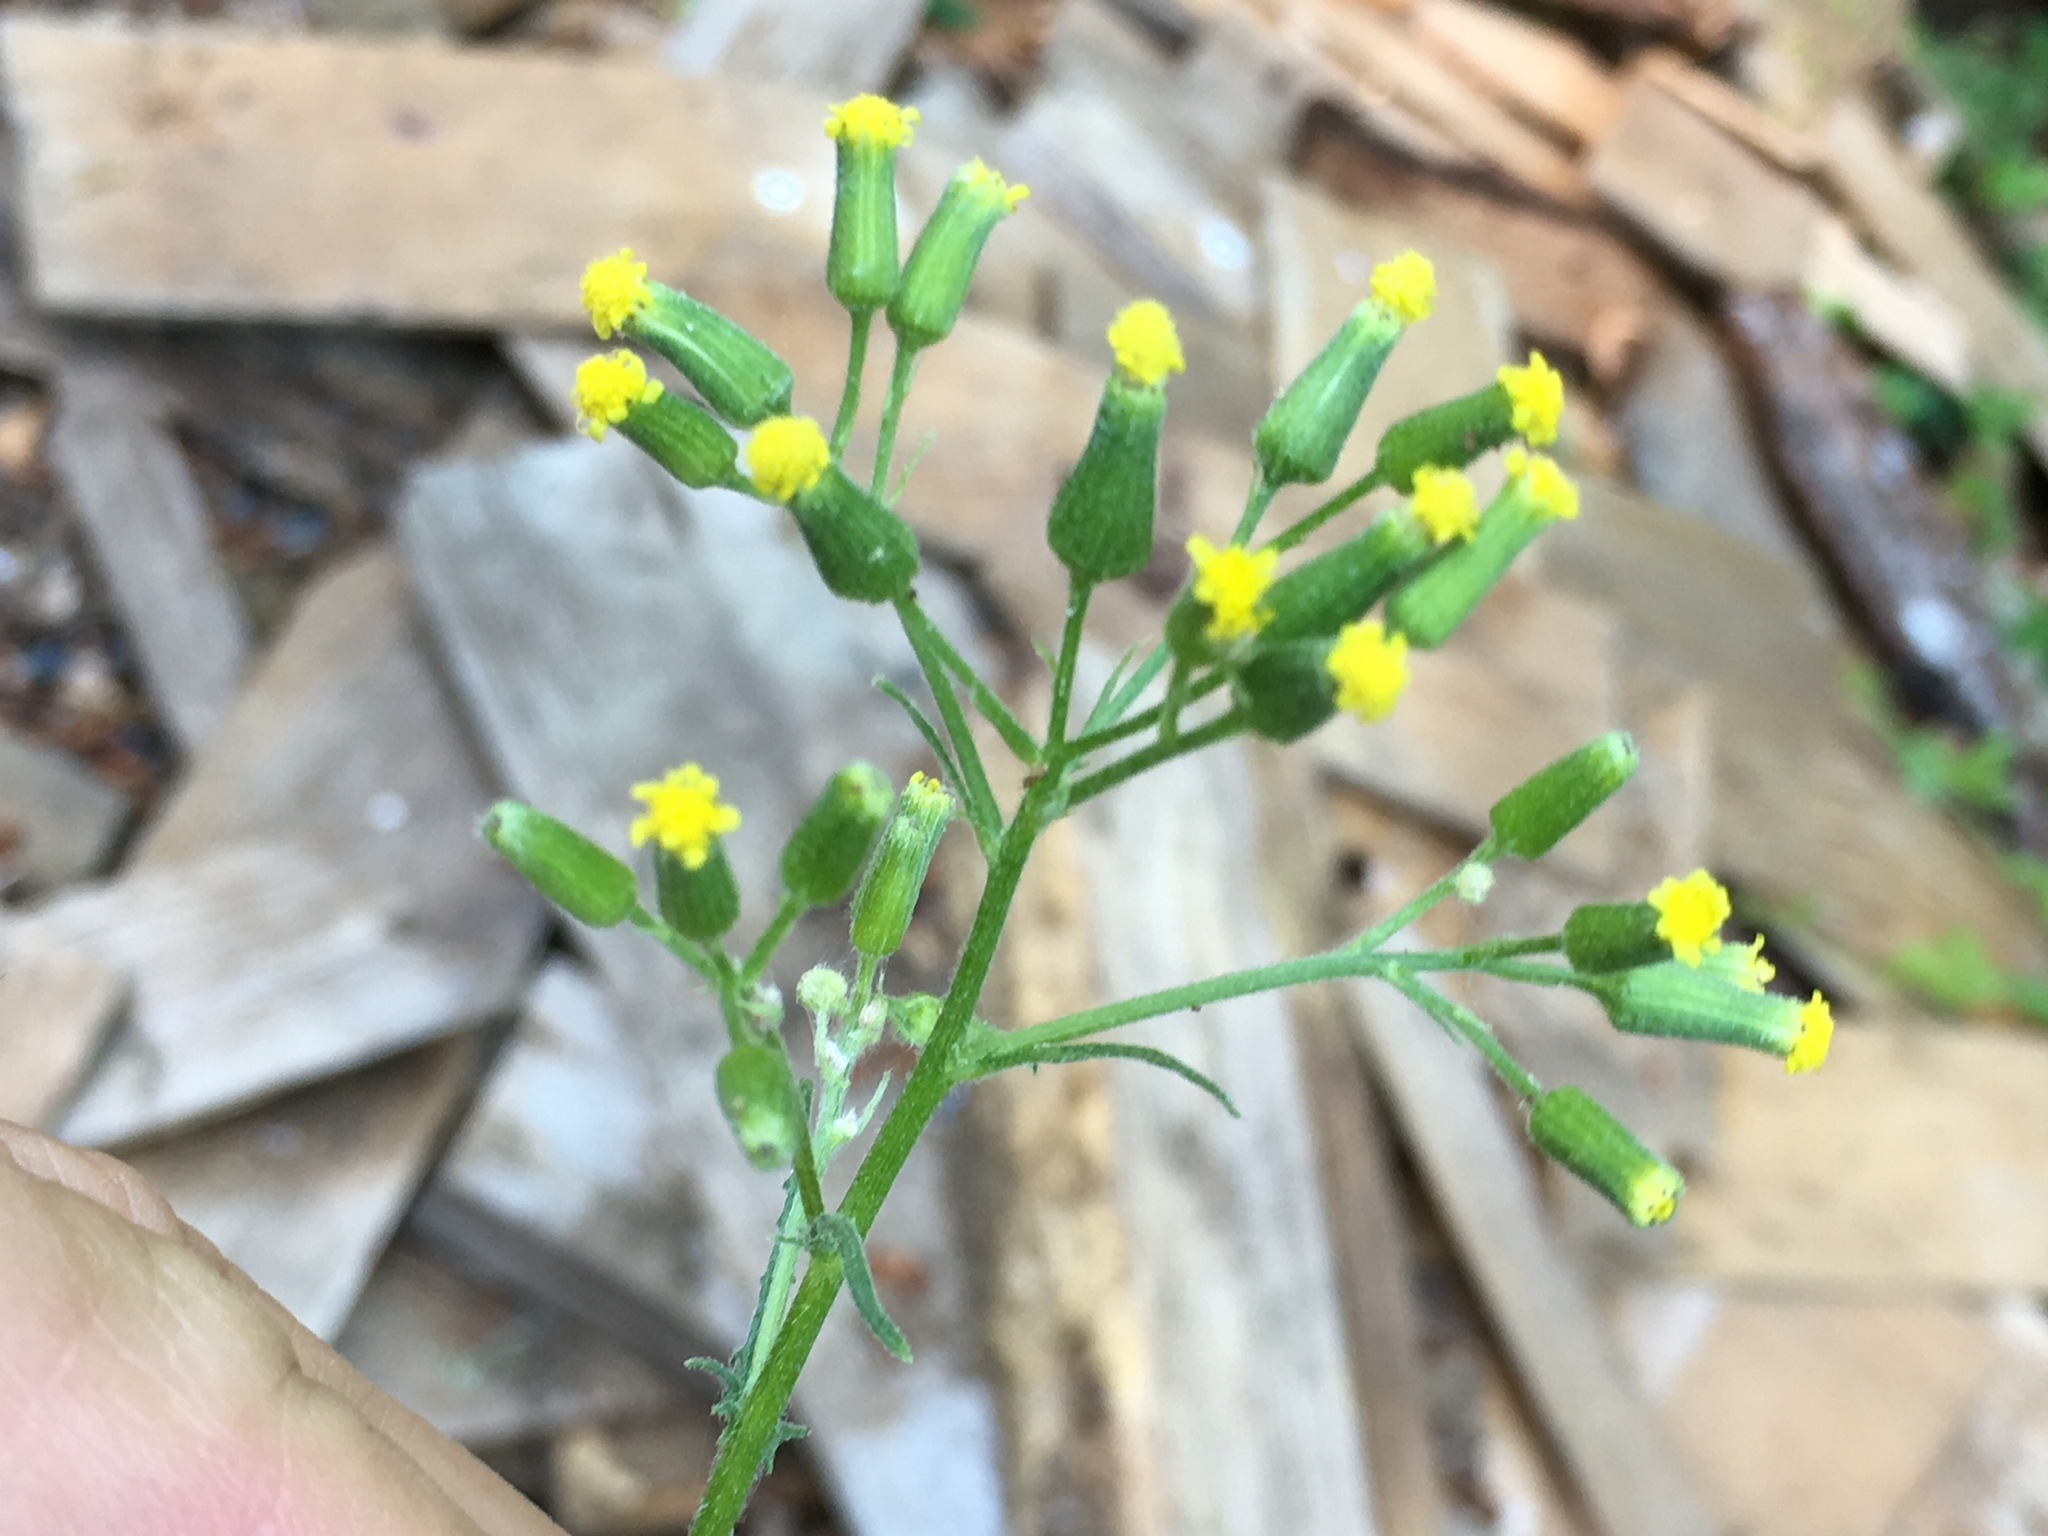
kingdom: Plantae
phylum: Tracheophyta
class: Magnoliopsida
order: Asterales
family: Asteraceae
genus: Senecio
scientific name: Senecio sylvaticus
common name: Woodland ragwort
